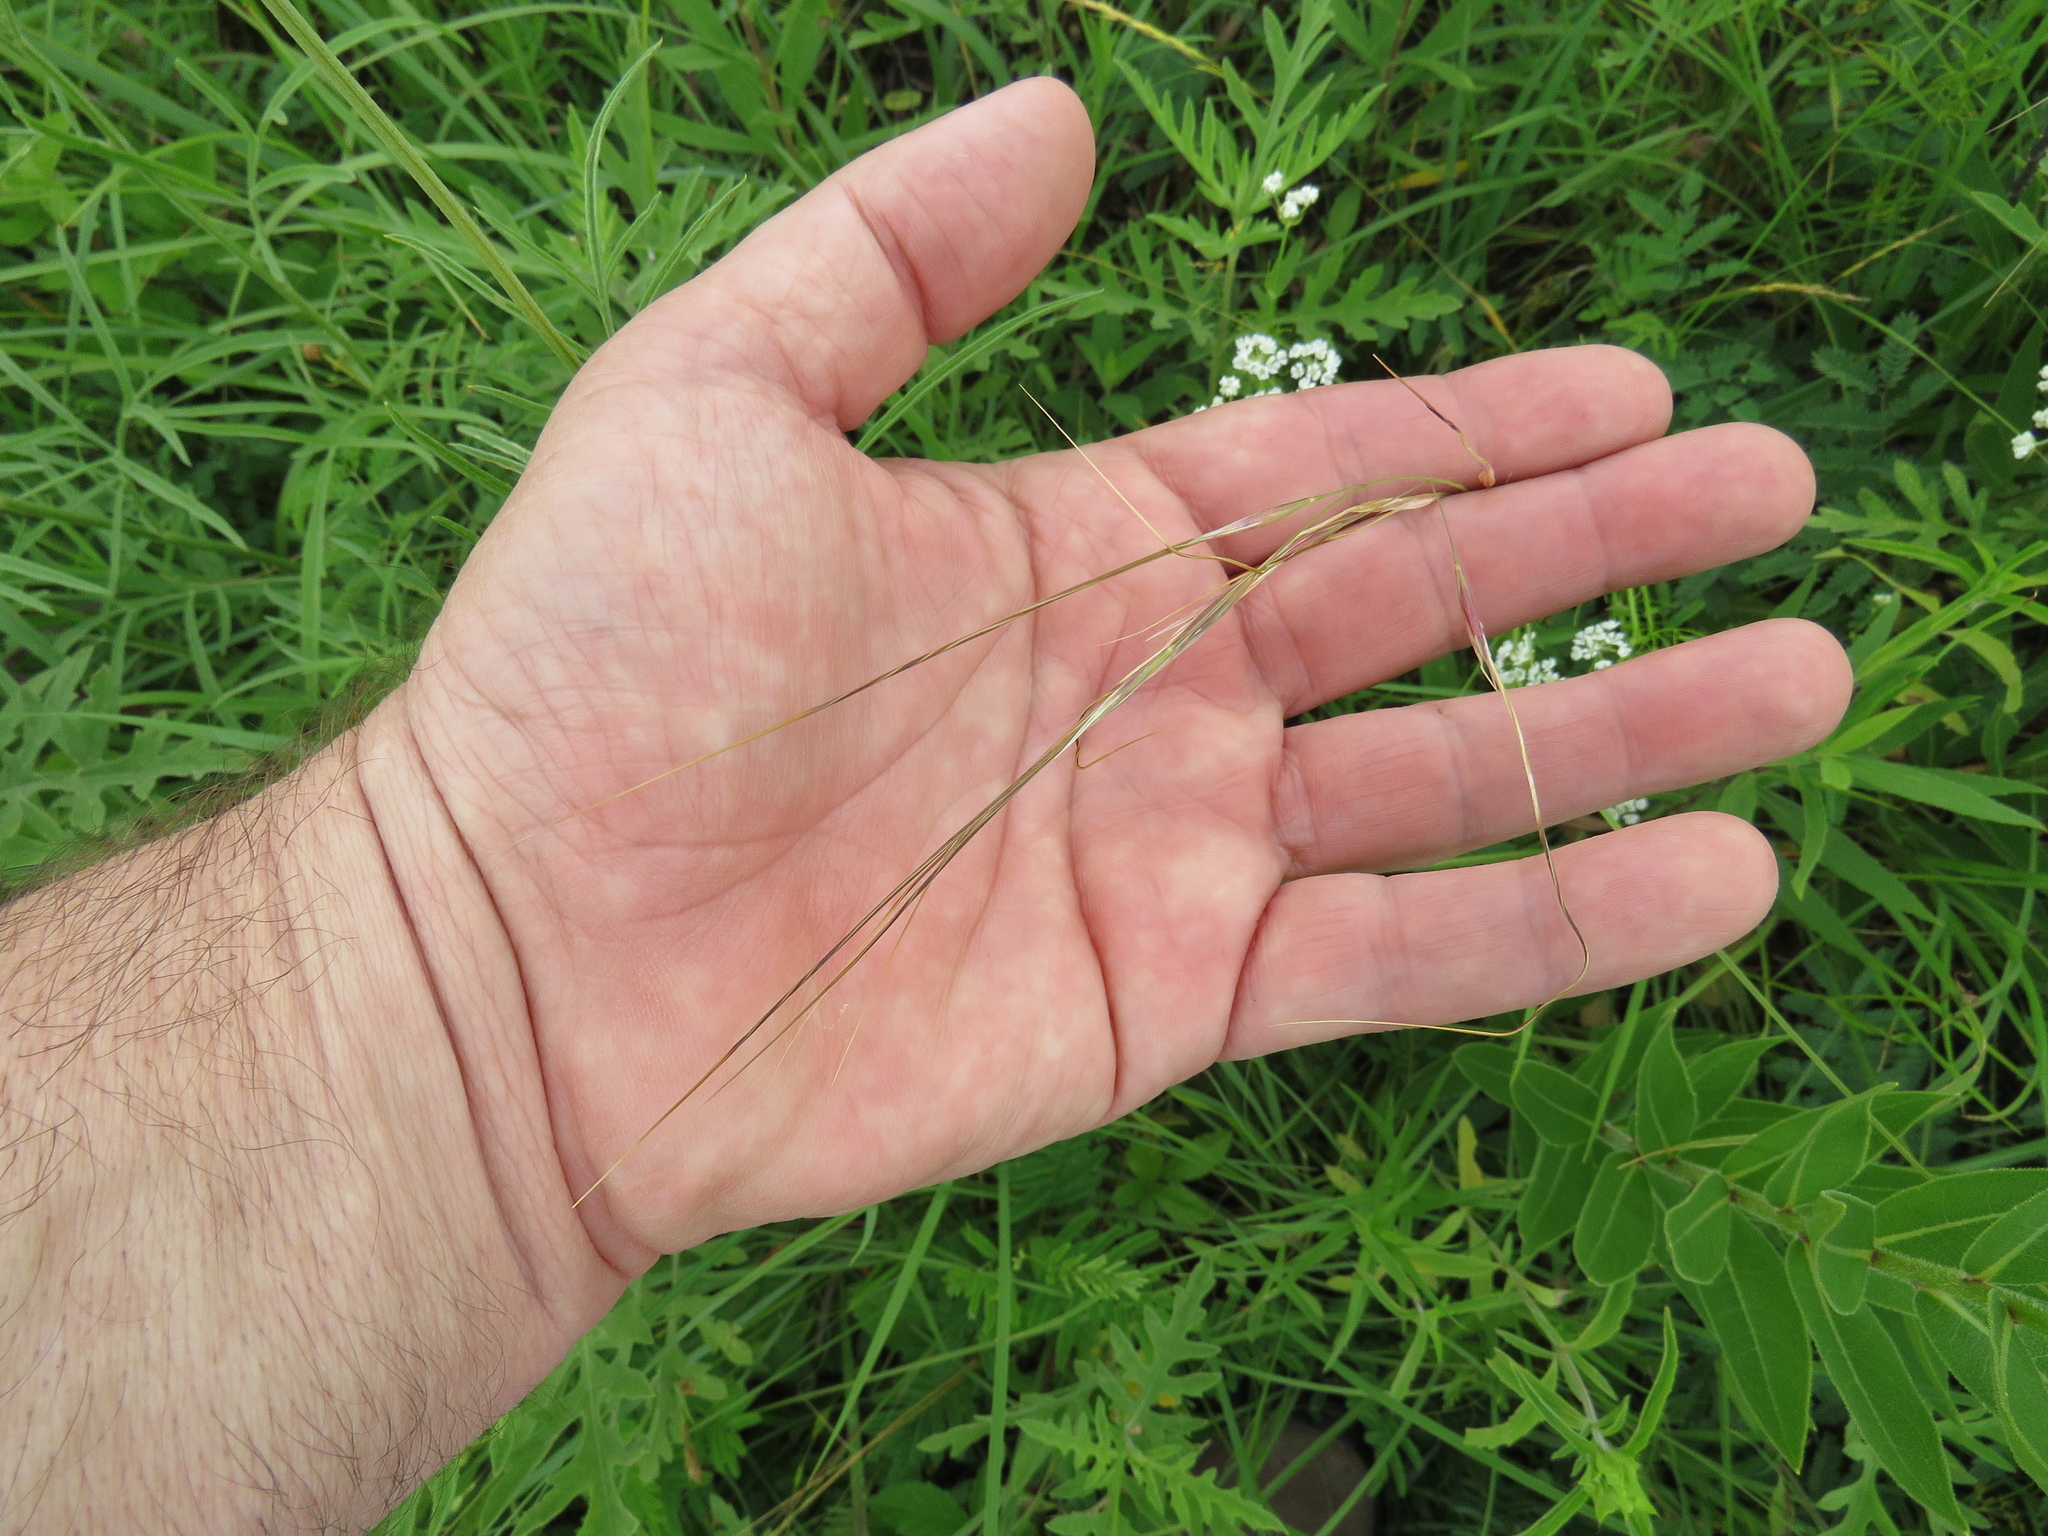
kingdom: Plantae
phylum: Tracheophyta
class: Liliopsida
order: Poales
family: Poaceae
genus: Nassella
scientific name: Nassella leucotricha
